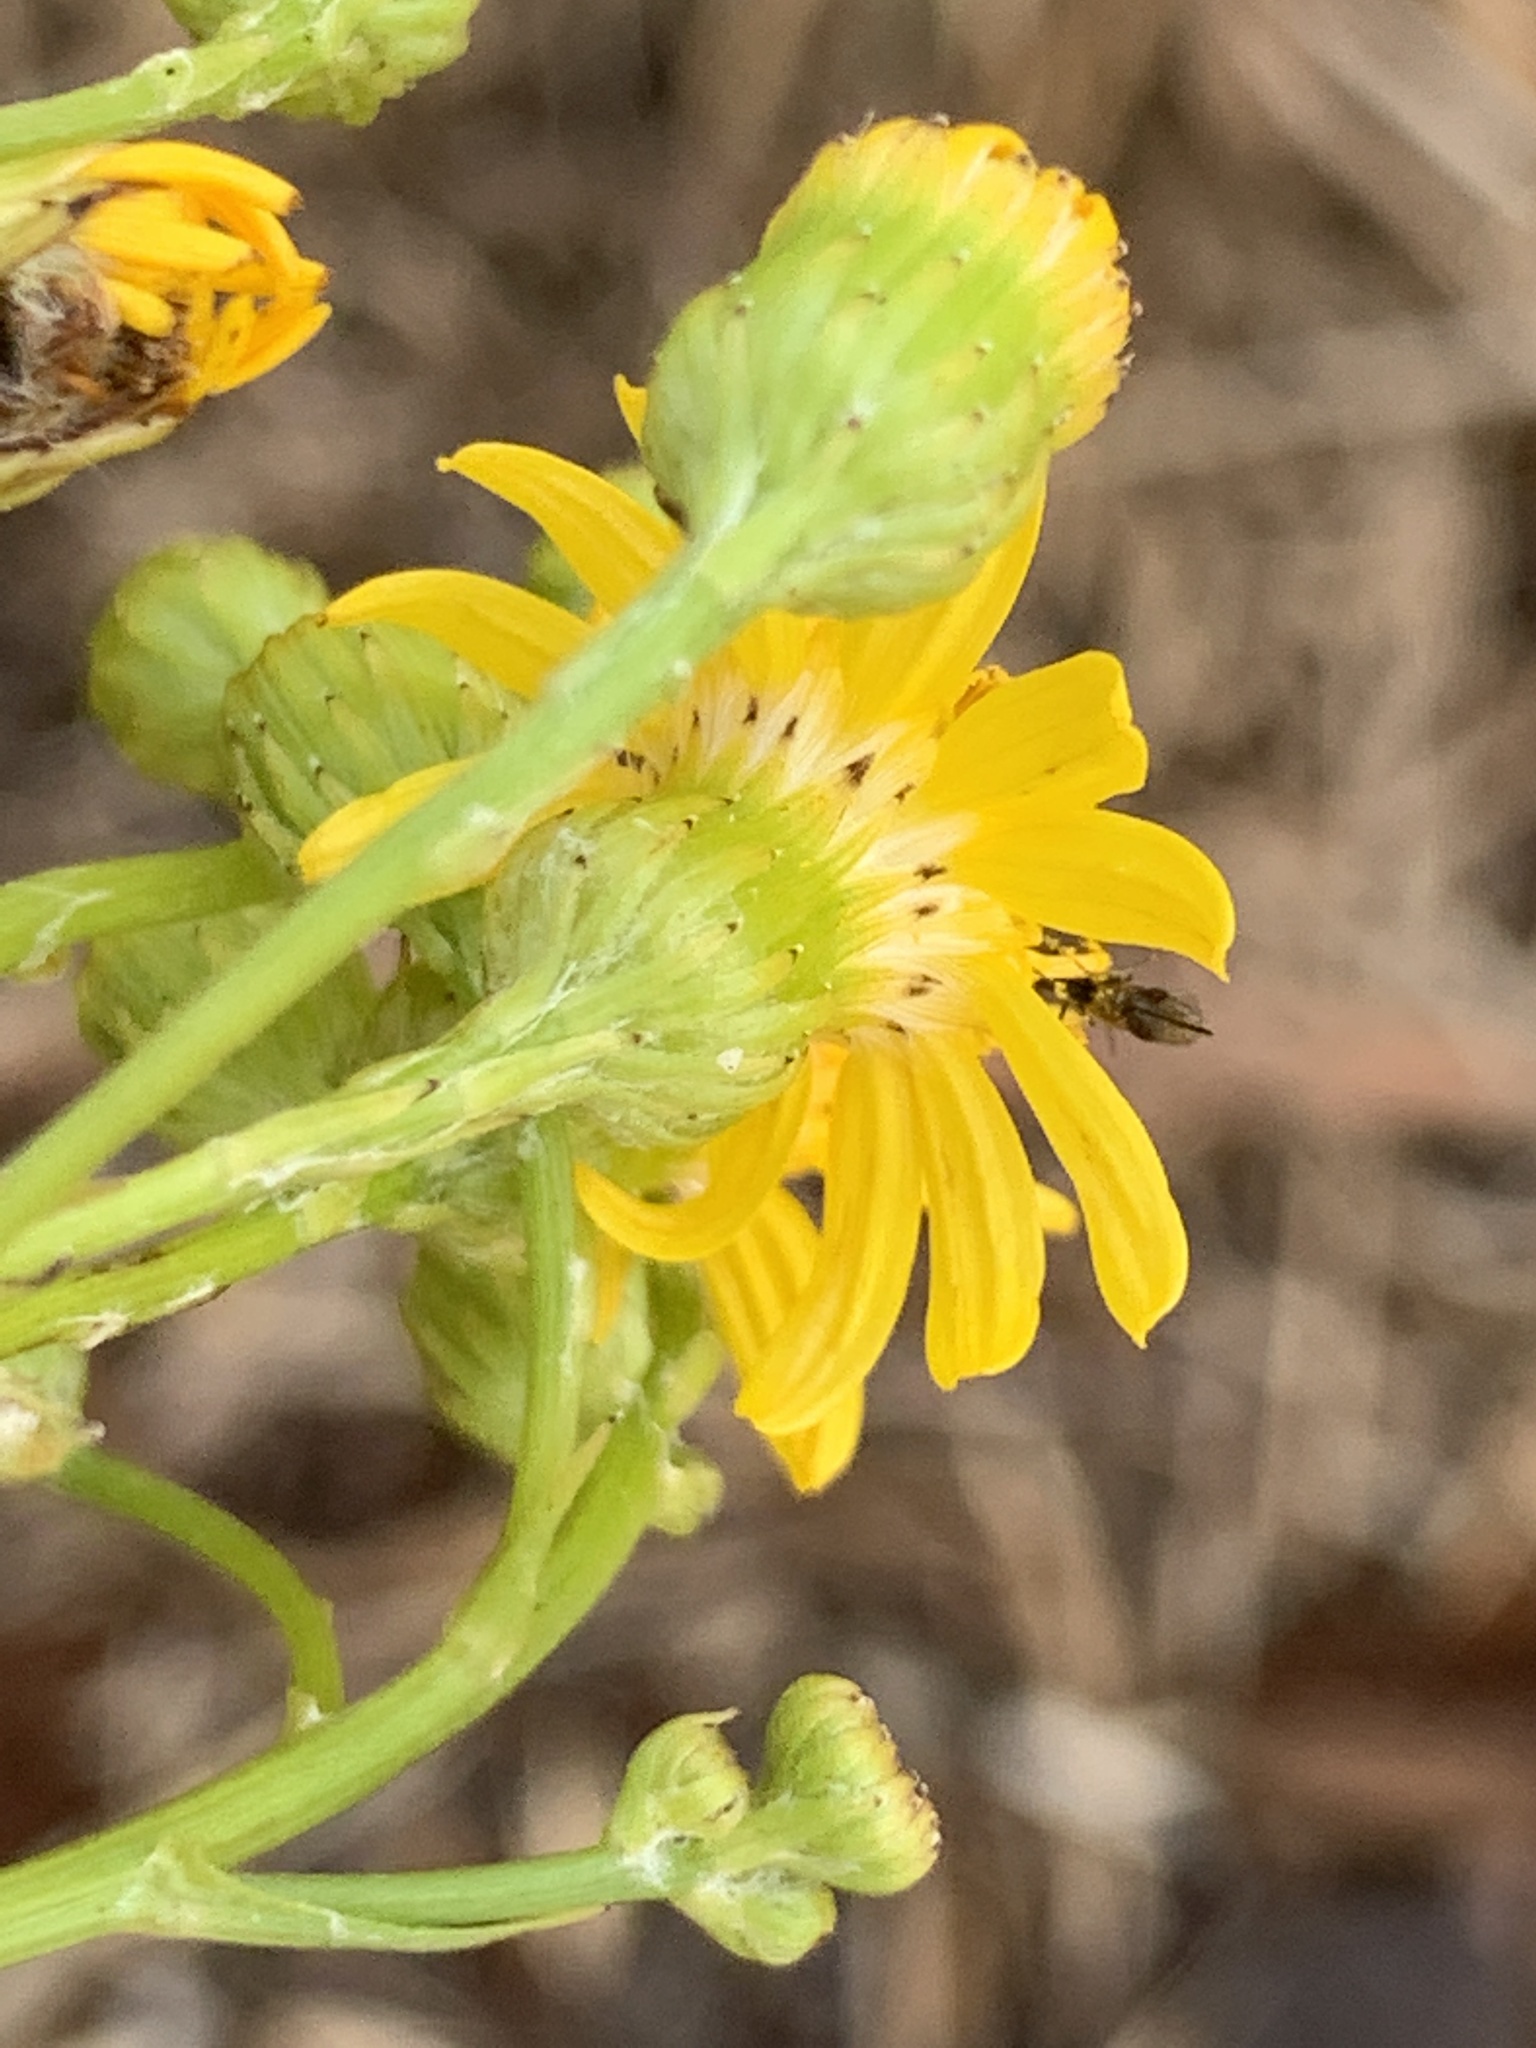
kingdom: Plantae
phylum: Tracheophyta
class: Magnoliopsida
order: Asterales
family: Asteraceae
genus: Senecio
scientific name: Senecio pterophorus
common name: Shoddy ragwort
